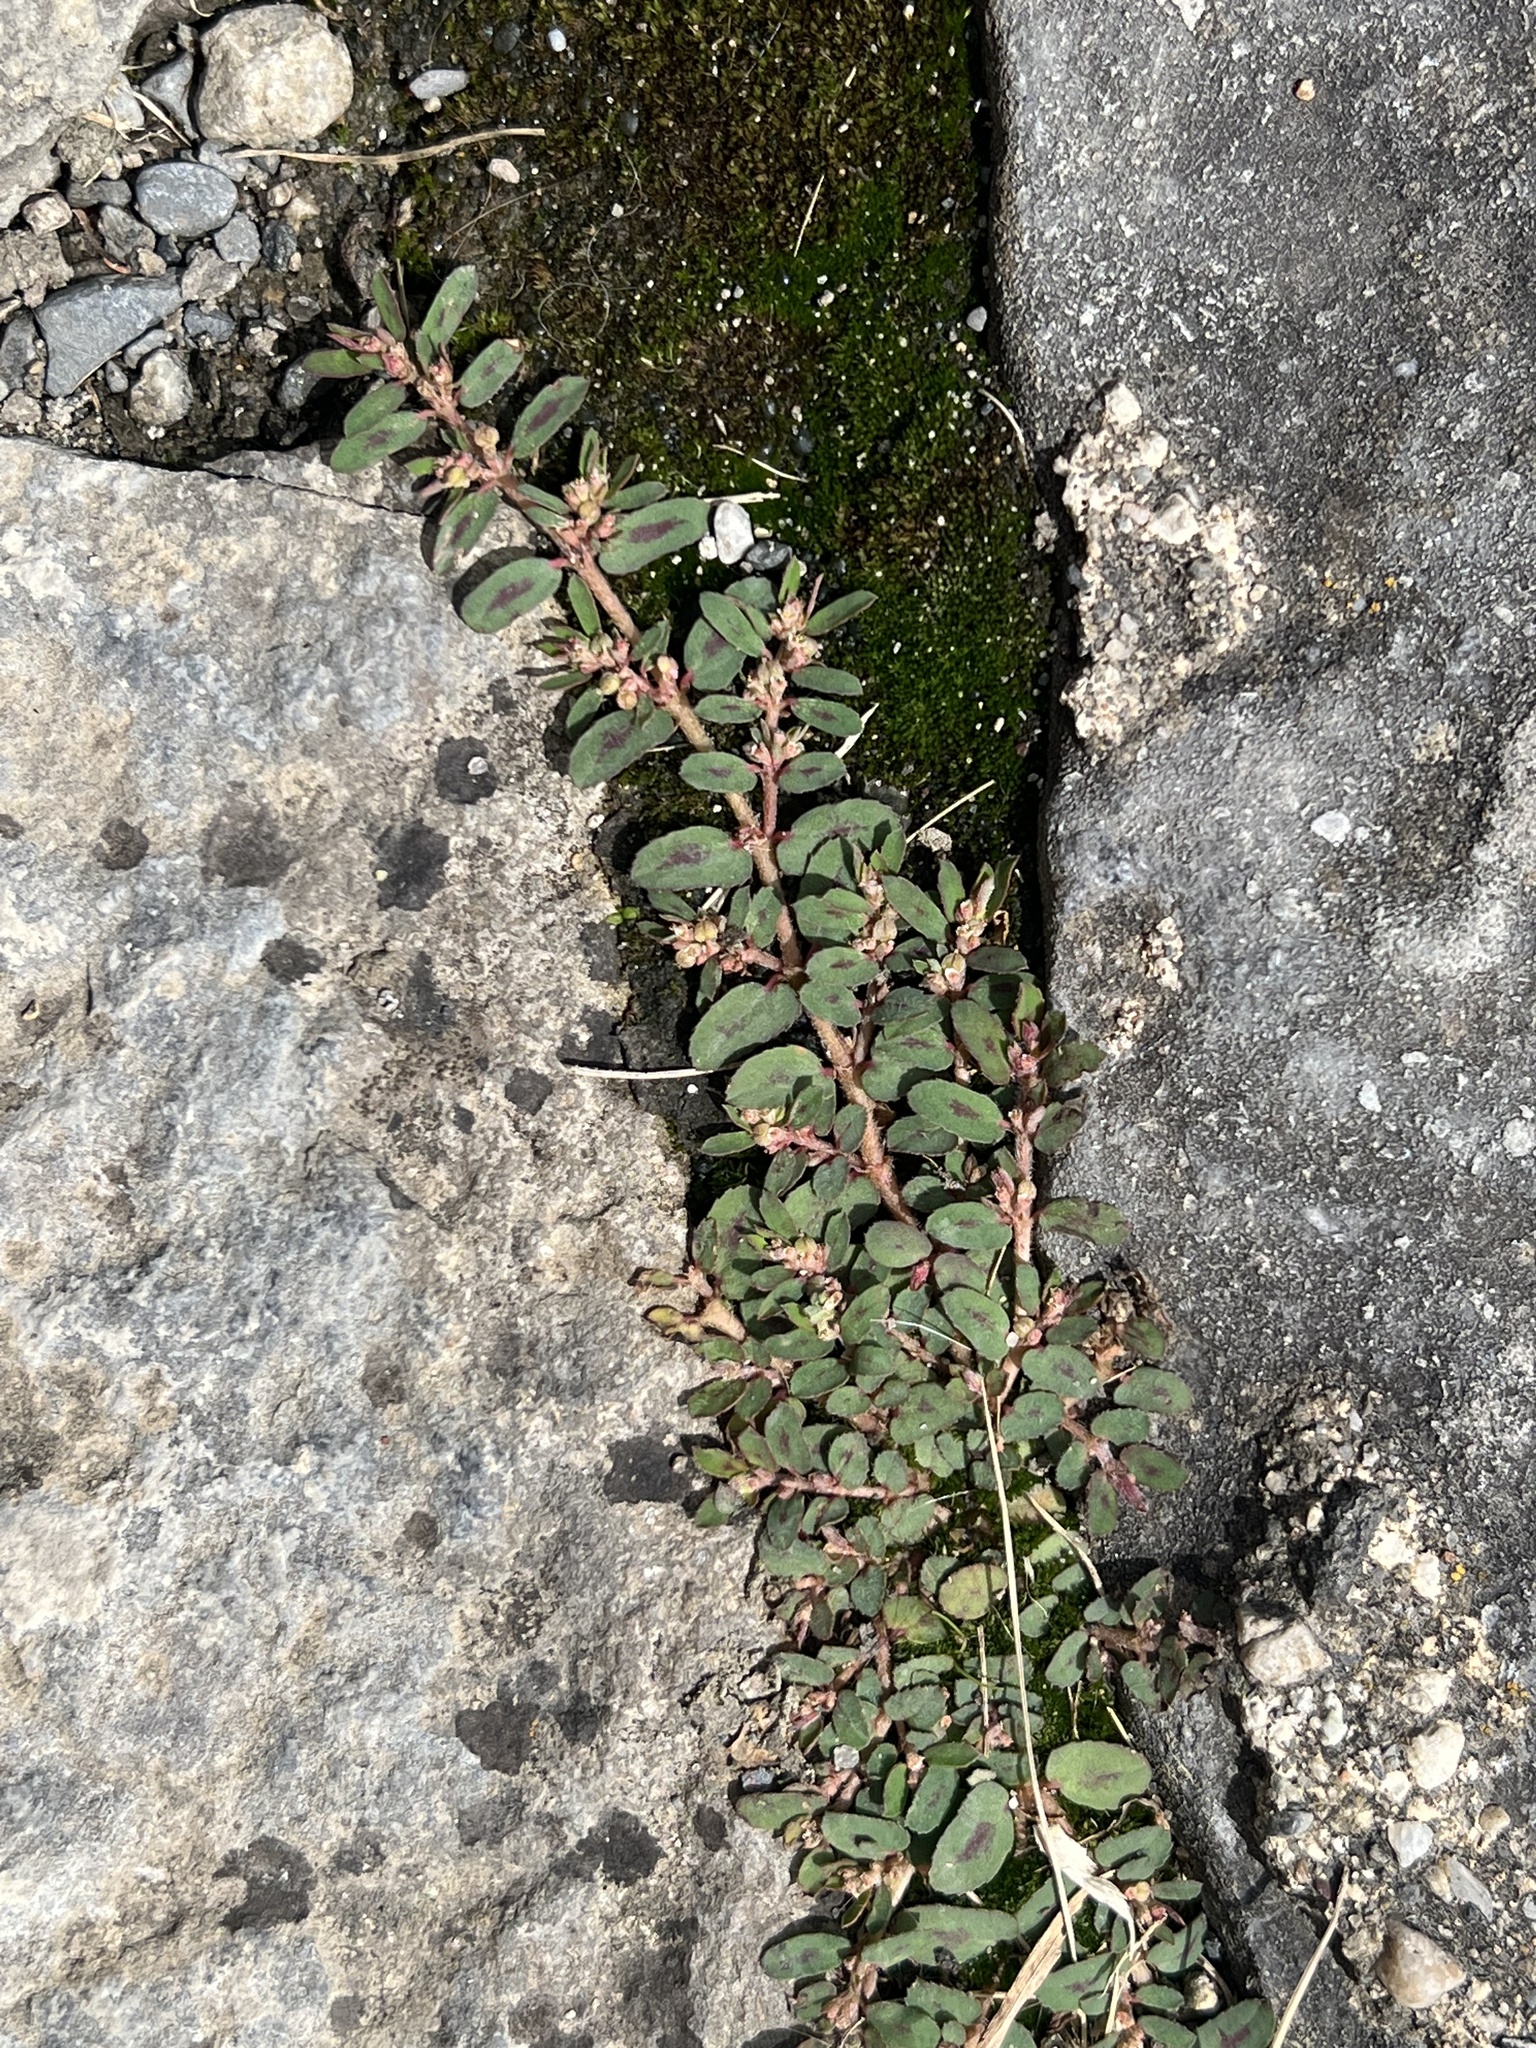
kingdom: Plantae
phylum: Tracheophyta
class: Magnoliopsida
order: Malpighiales
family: Euphorbiaceae
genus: Euphorbia
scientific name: Euphorbia maculata
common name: Spotted spurge
